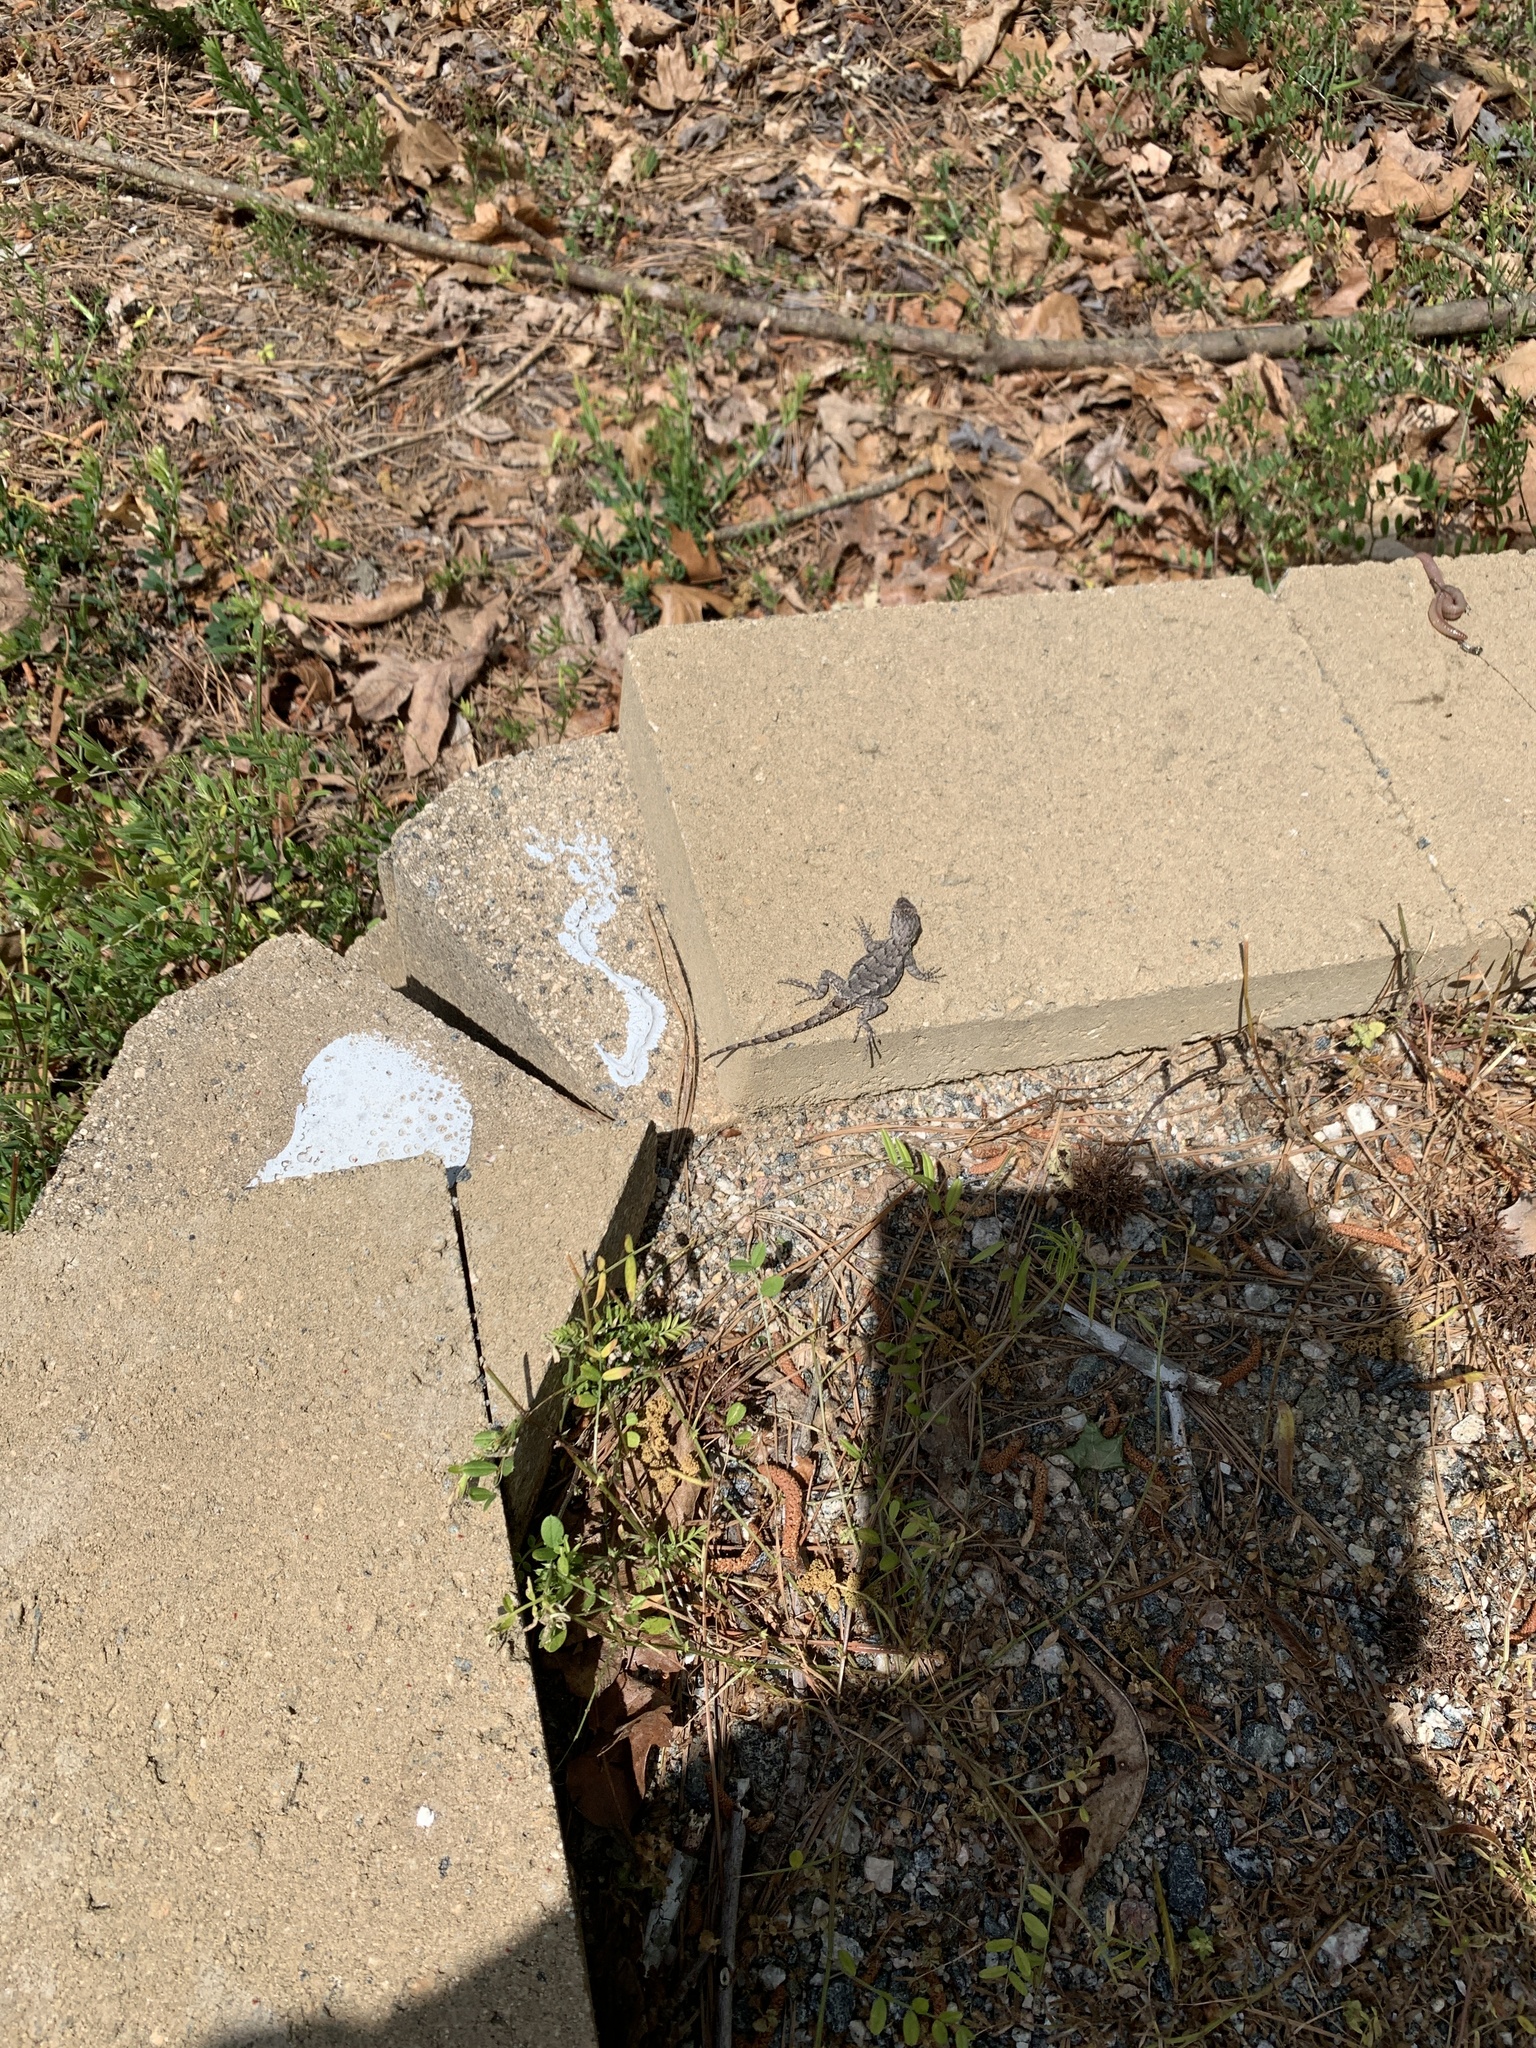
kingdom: Animalia
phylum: Chordata
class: Squamata
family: Phrynosomatidae
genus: Sceloporus
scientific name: Sceloporus undulatus
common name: Eastern fence lizard
